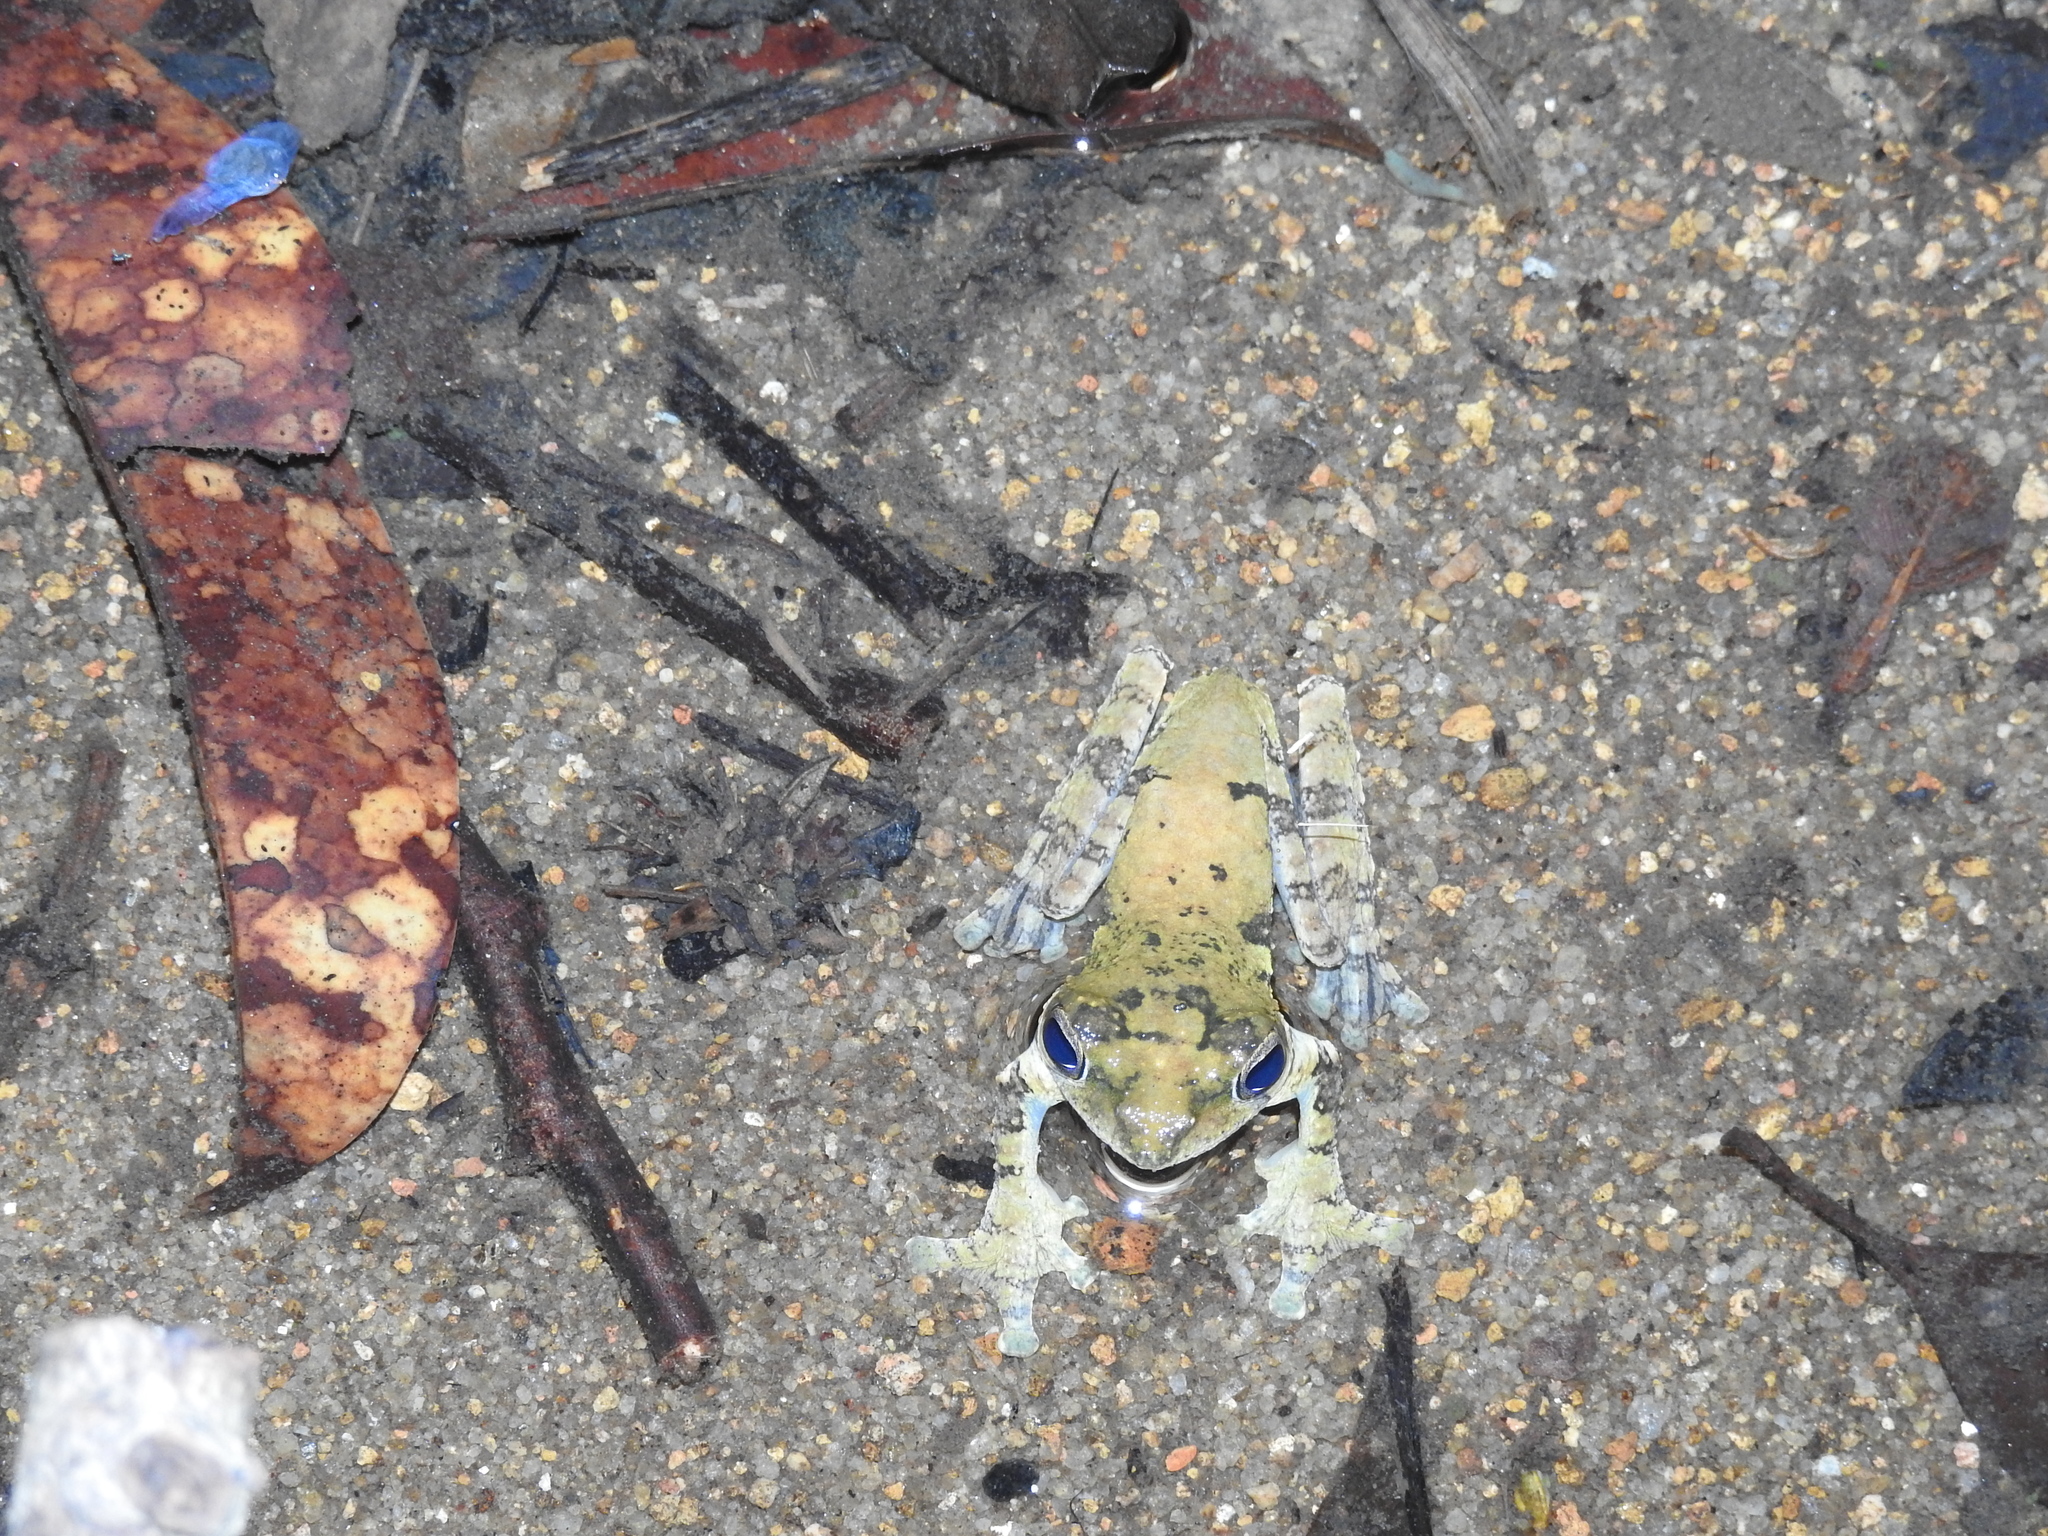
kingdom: Animalia
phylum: Chordata
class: Amphibia
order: Anura
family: Rhacophoridae
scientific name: Rhacophoridae
